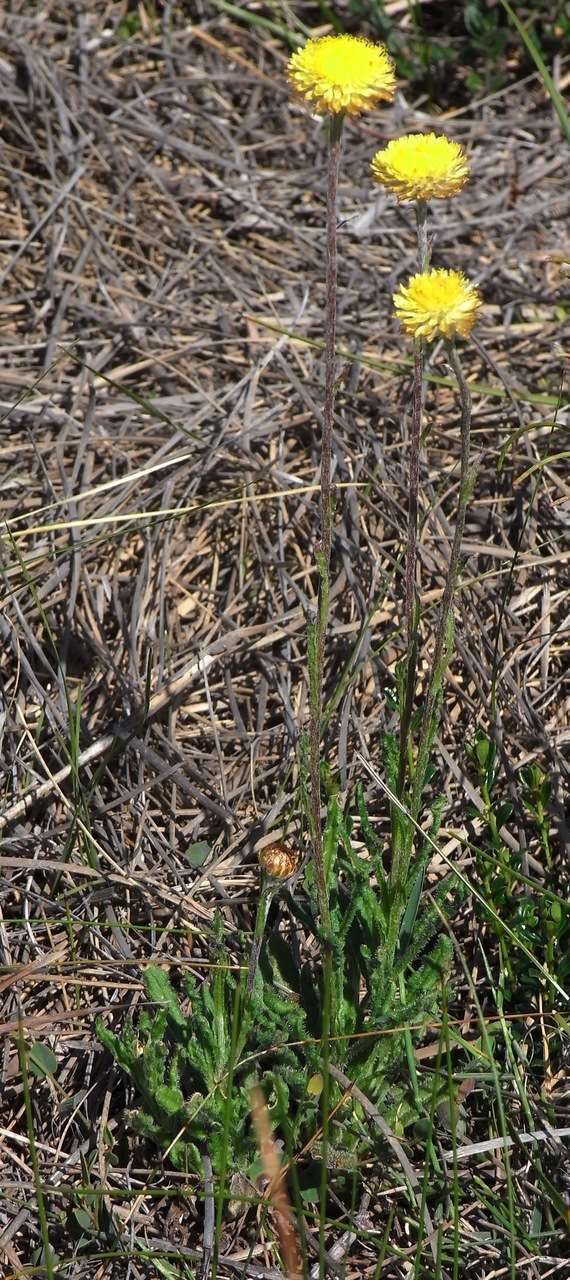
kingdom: Plantae
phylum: Tracheophyta
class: Magnoliopsida
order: Asterales
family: Asteraceae
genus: Coronidium
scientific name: Coronidium scorpioides
